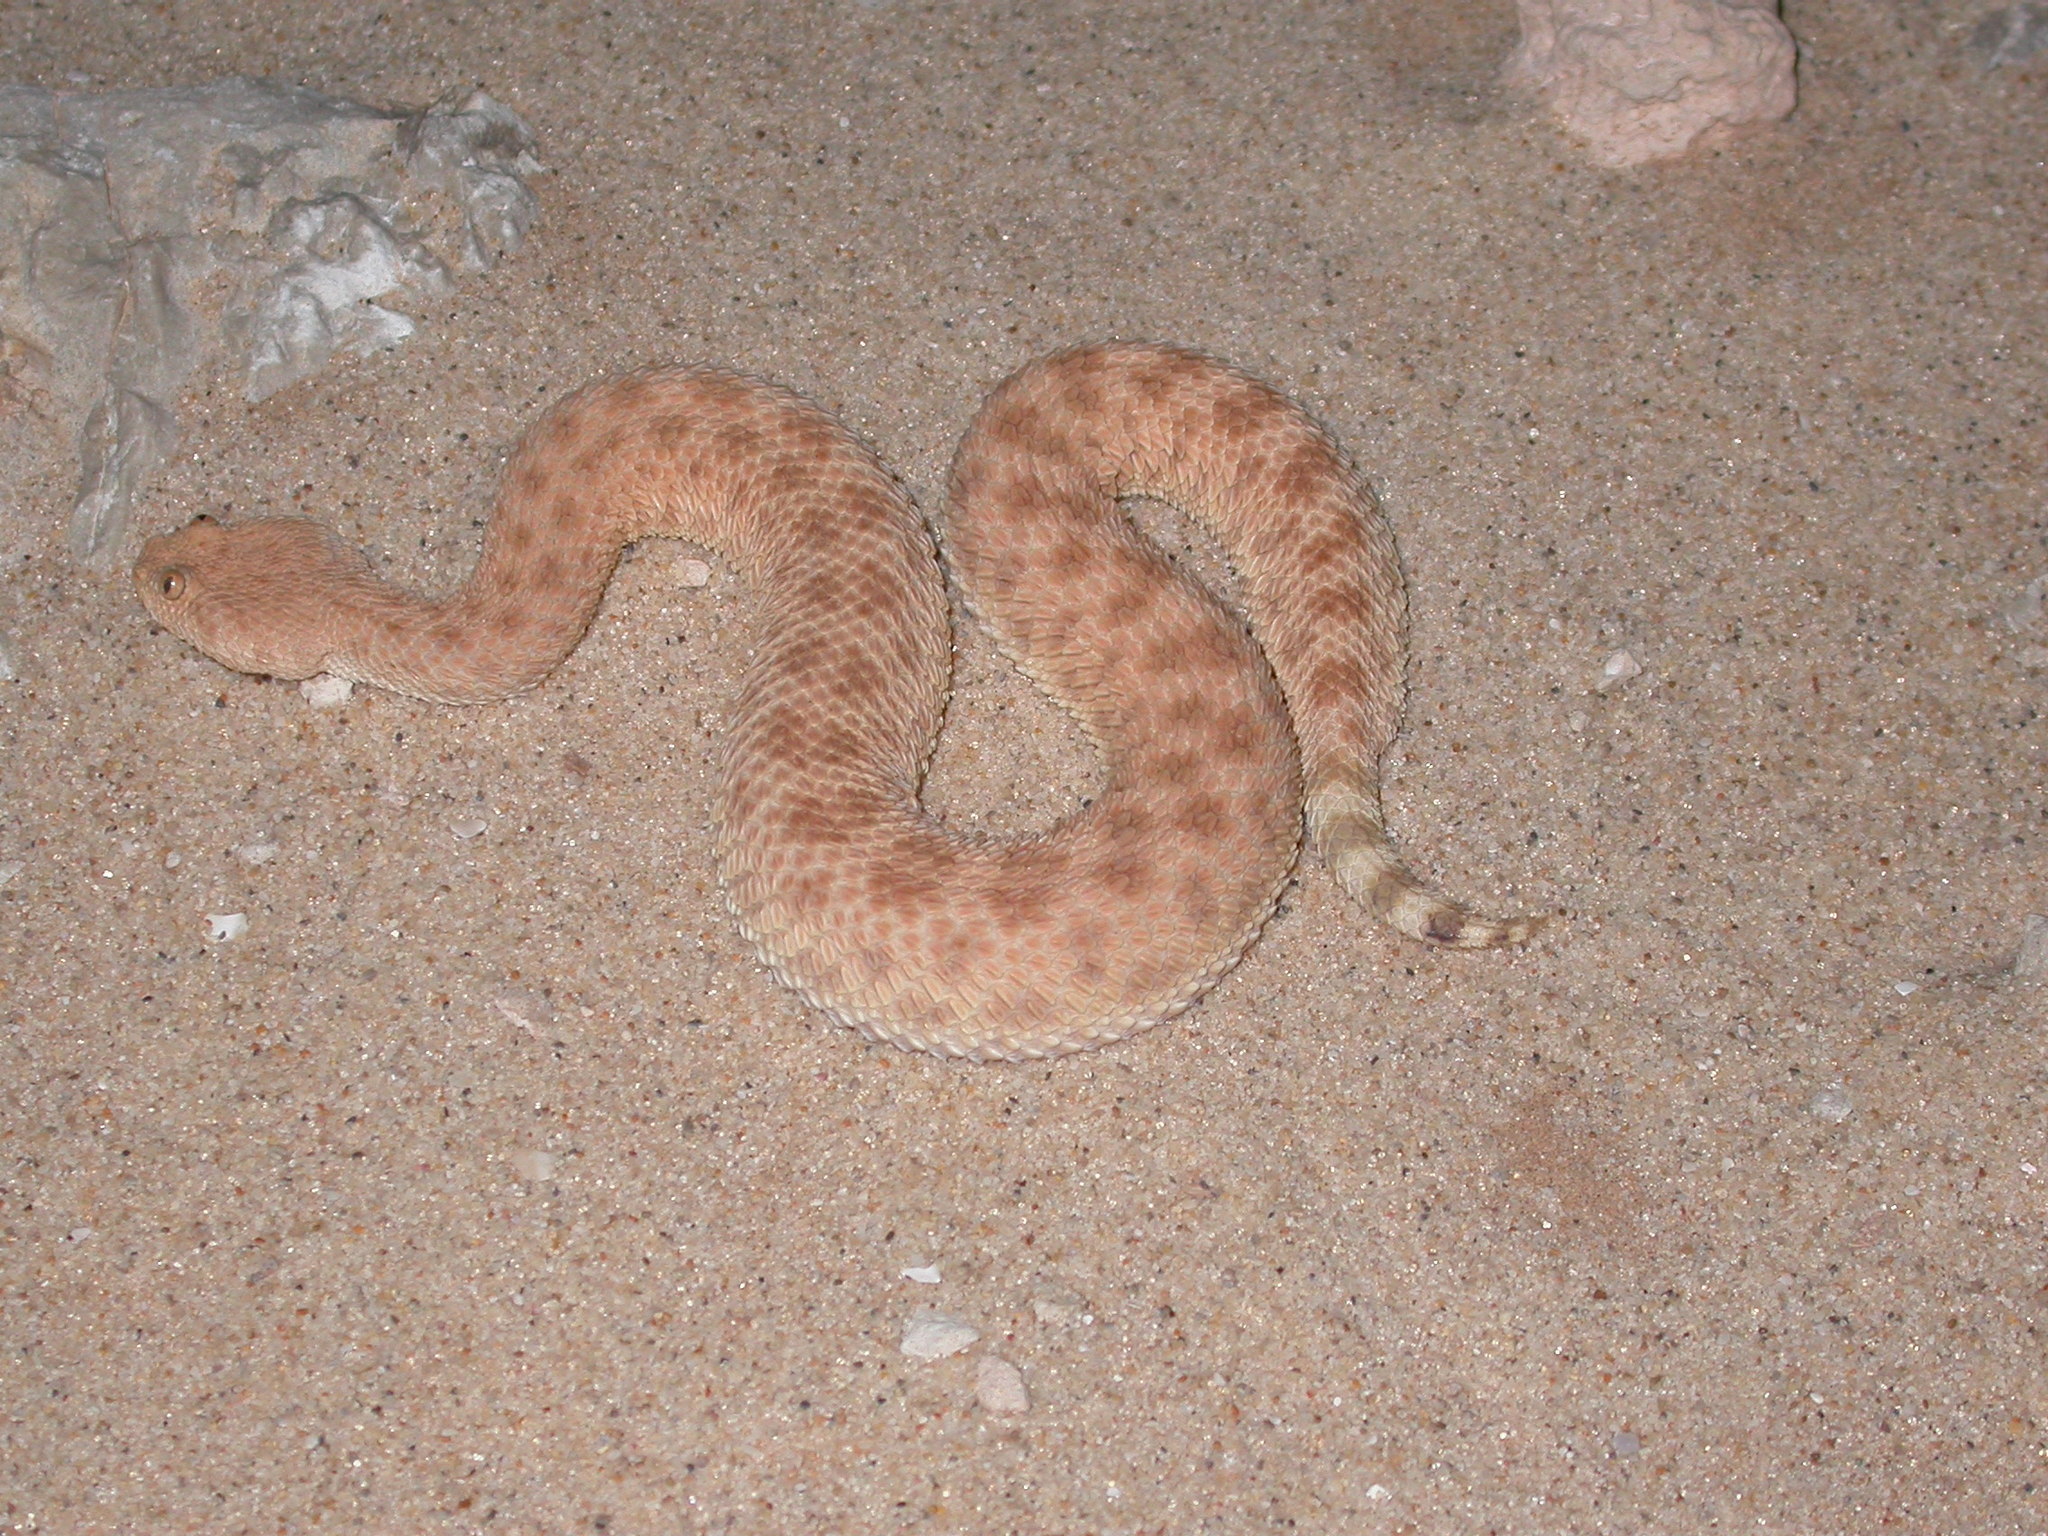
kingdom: Animalia
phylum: Chordata
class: Squamata
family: Viperidae
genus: Cerastes
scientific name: Cerastes vipera
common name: Sahara sand viper
